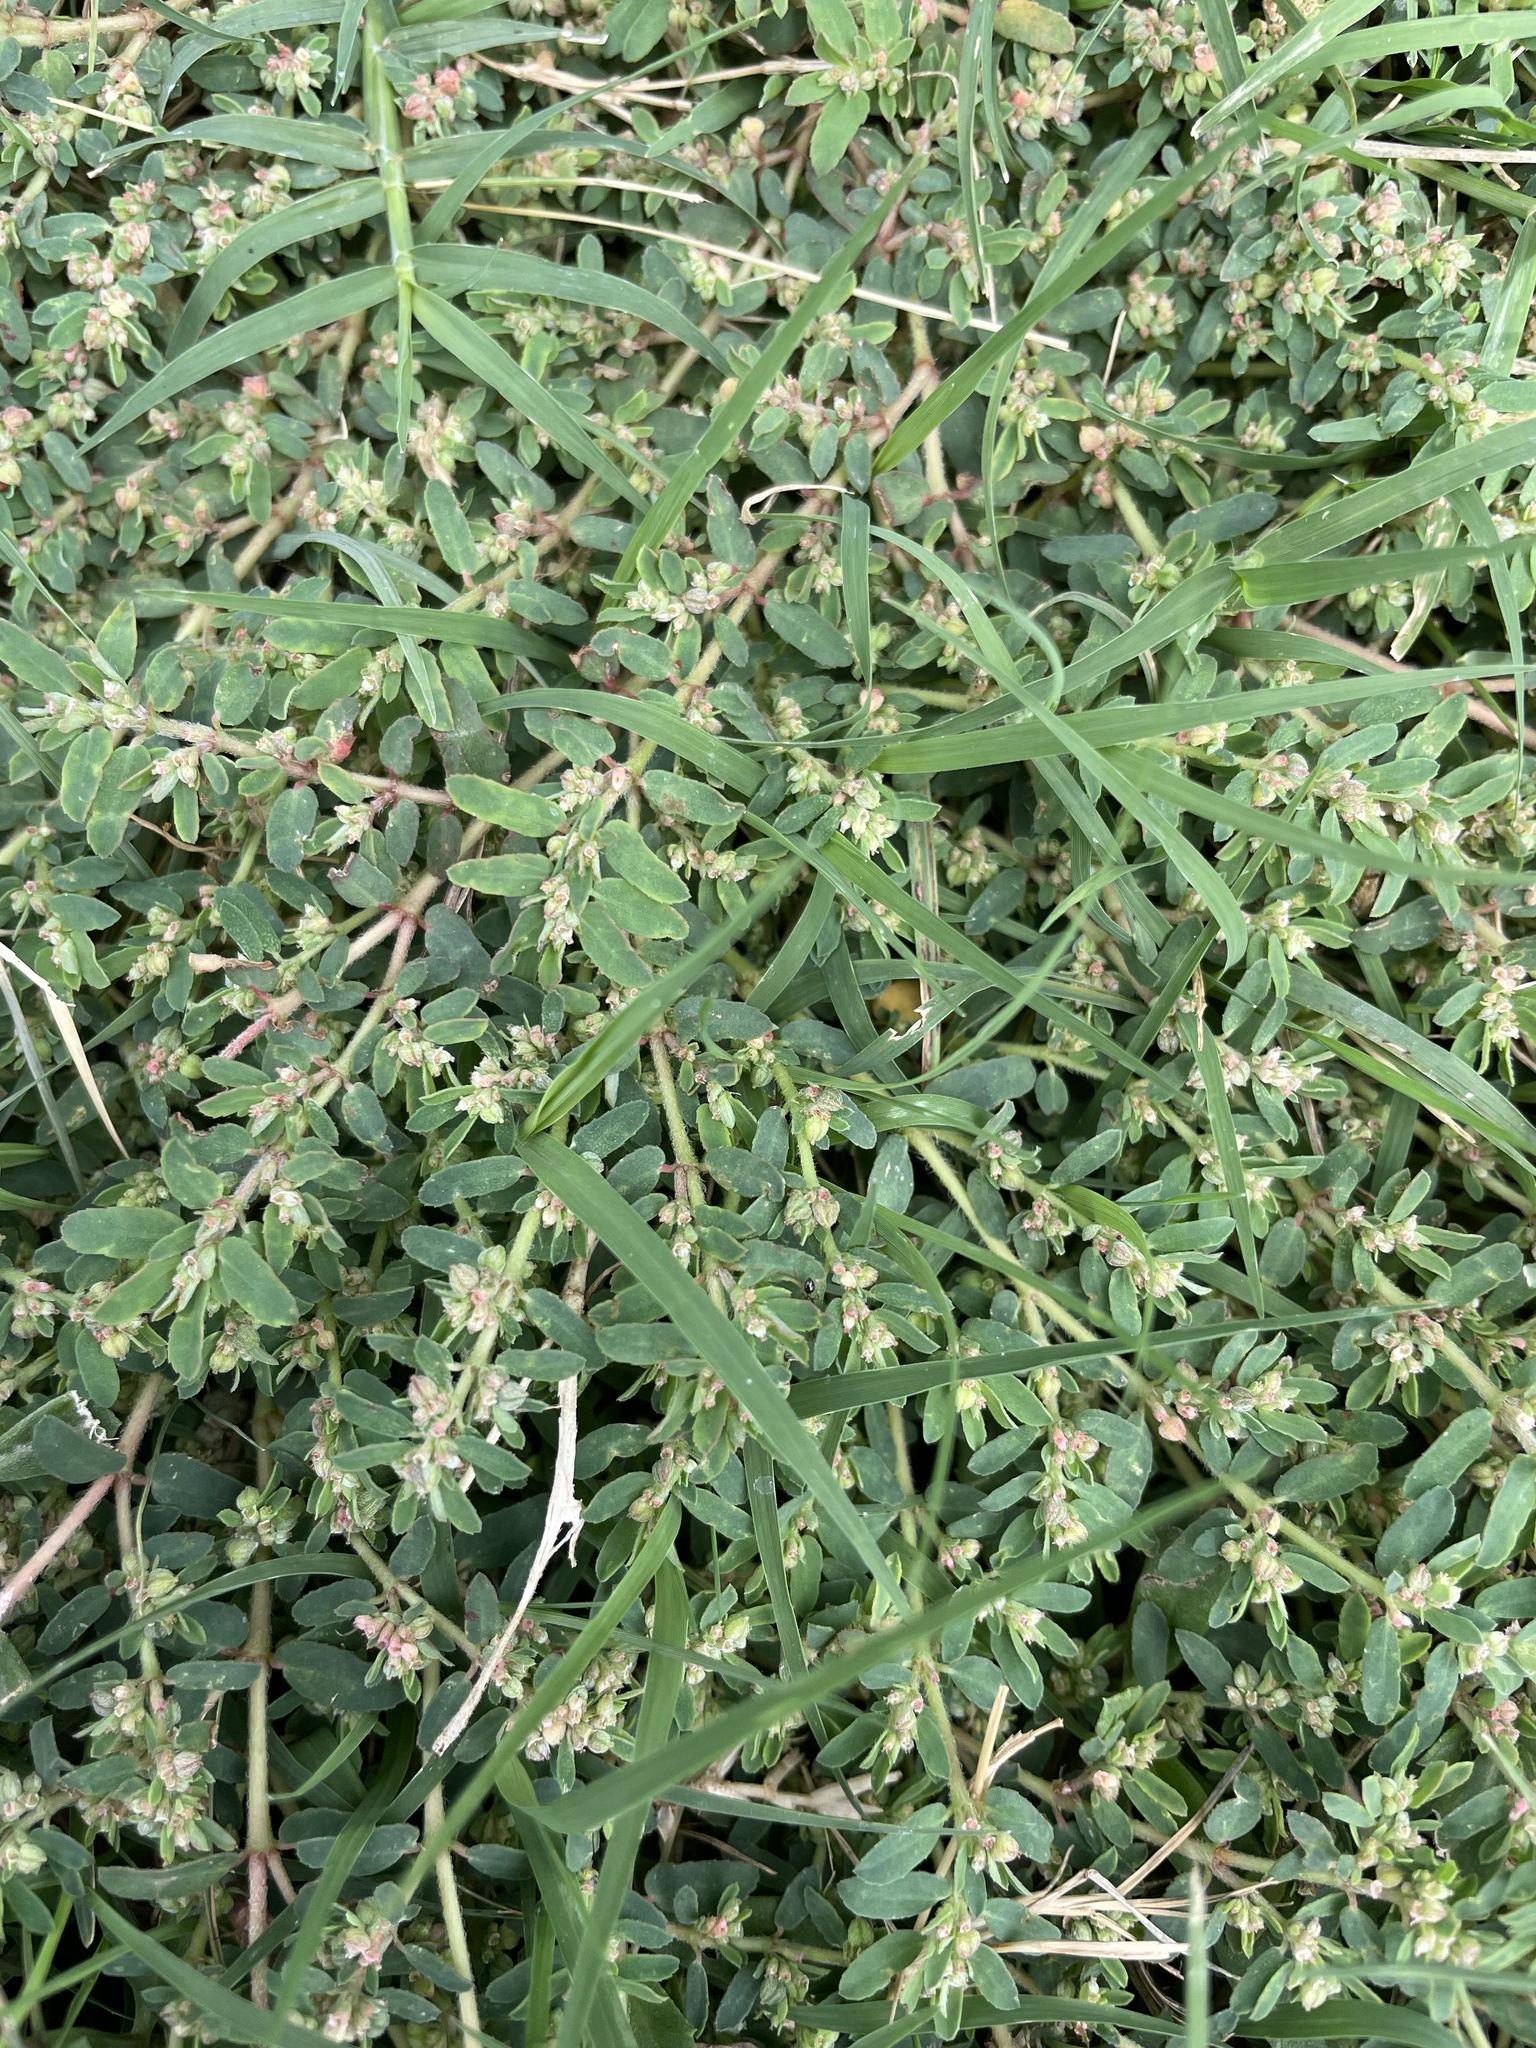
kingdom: Plantae
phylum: Tracheophyta
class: Magnoliopsida
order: Malpighiales
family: Euphorbiaceae
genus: Euphorbia
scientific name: Euphorbia maculata
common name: Spotted spurge
